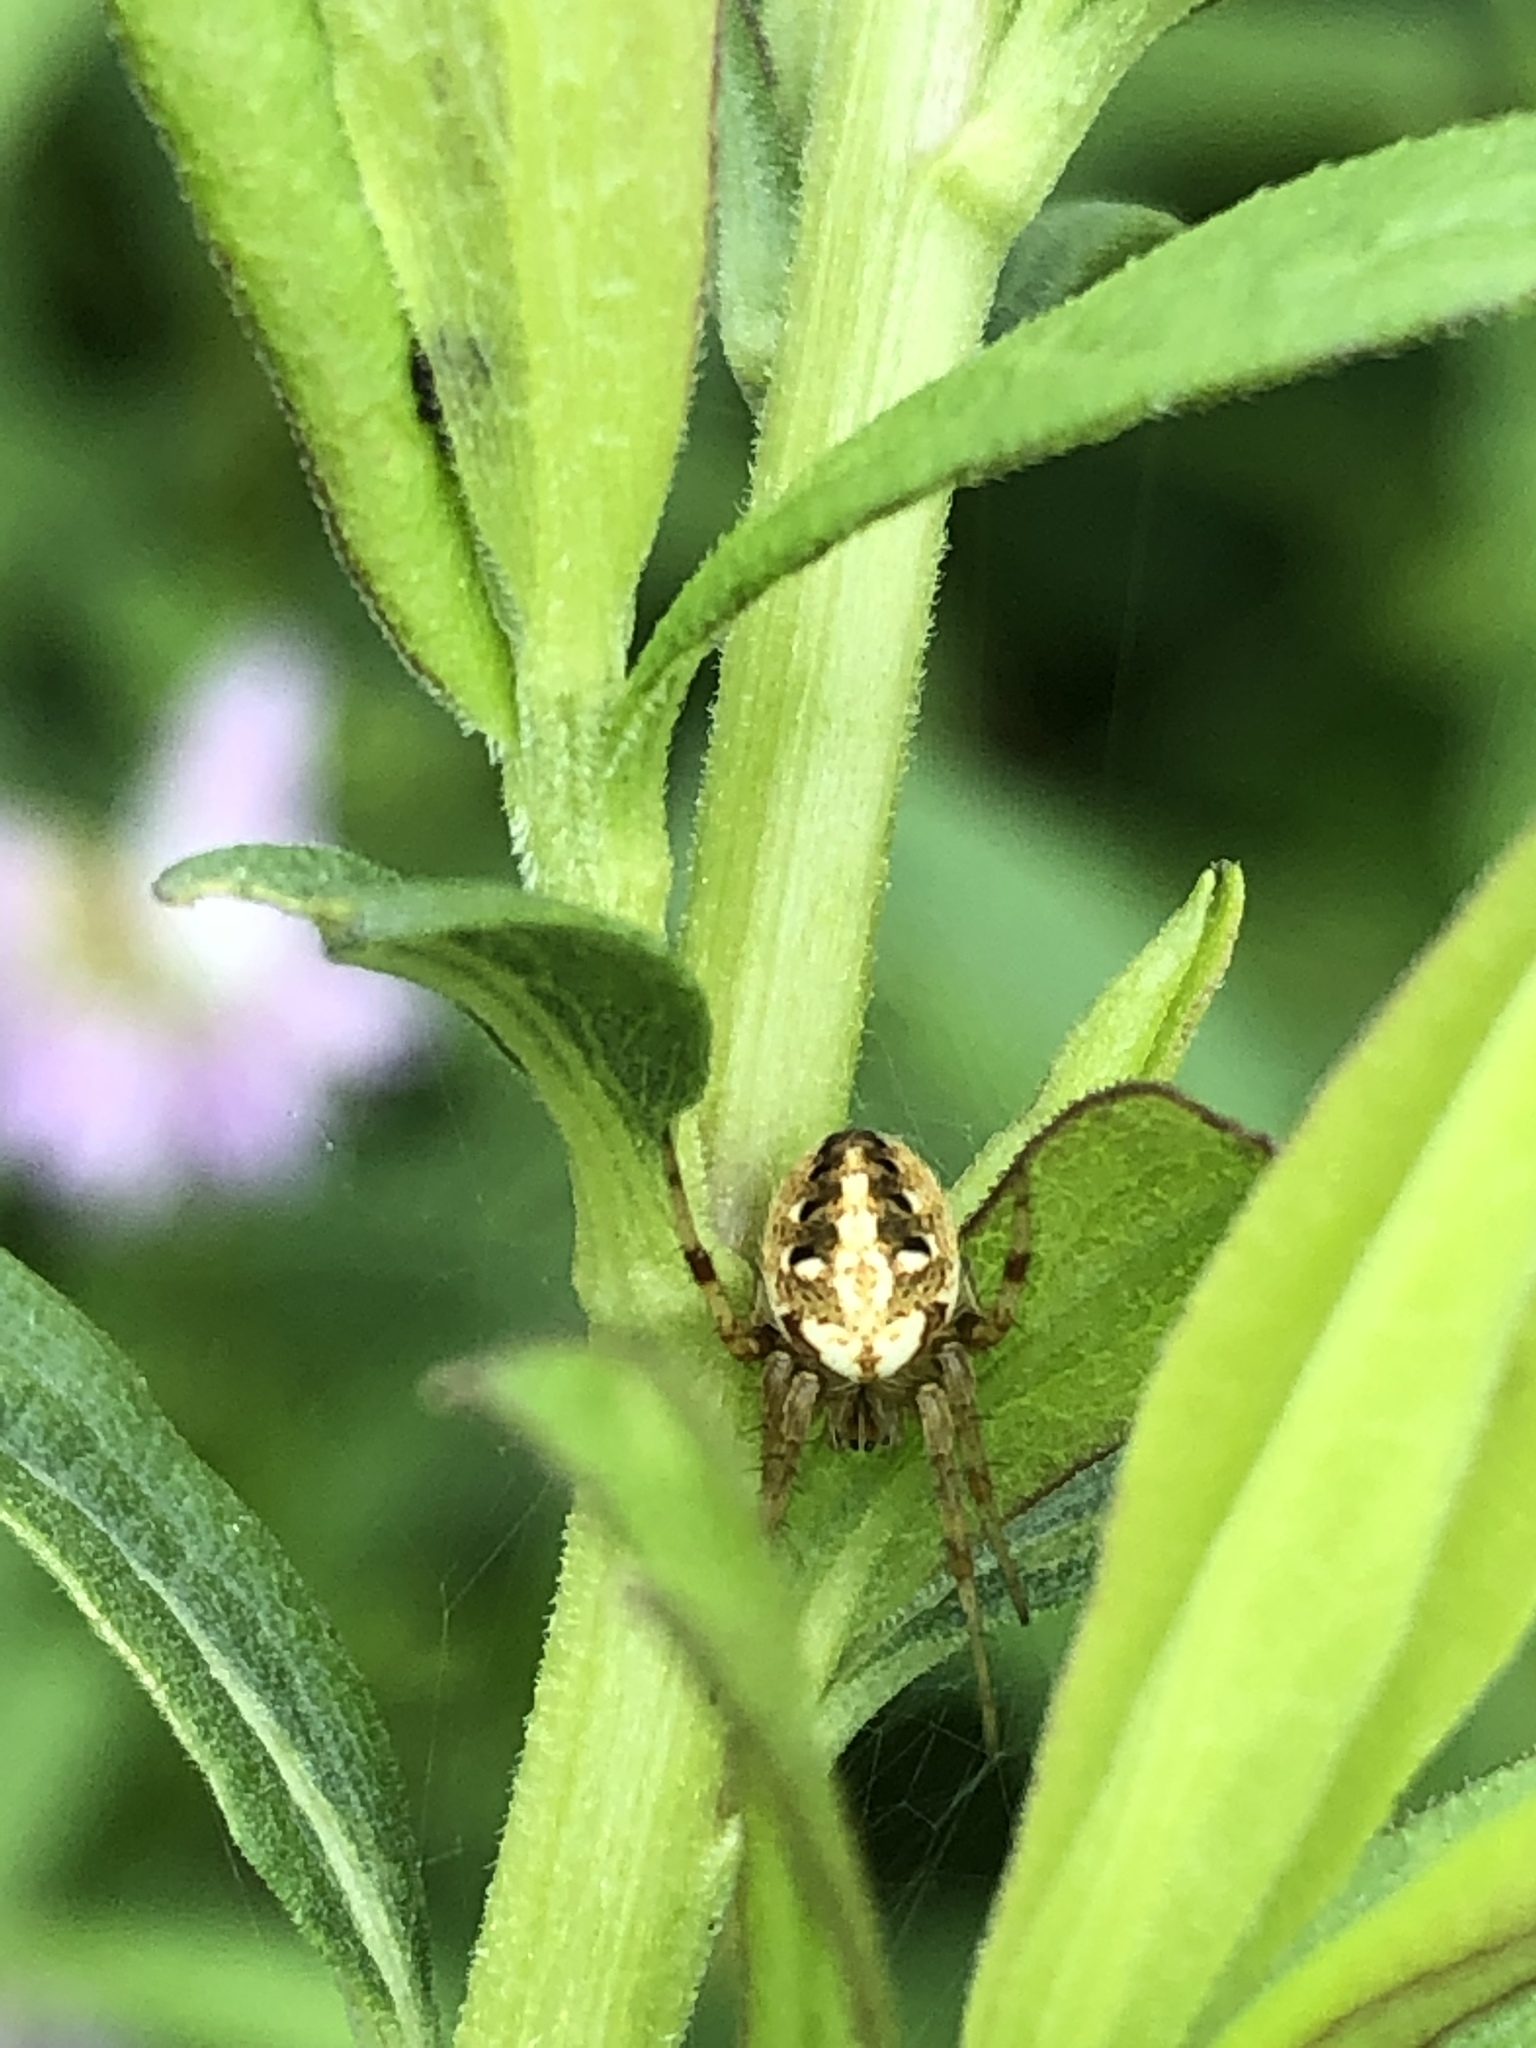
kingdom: Animalia
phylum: Arthropoda
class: Arachnida
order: Araneae
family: Araneidae
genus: Neoscona
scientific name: Neoscona arabesca
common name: Orb weavers
